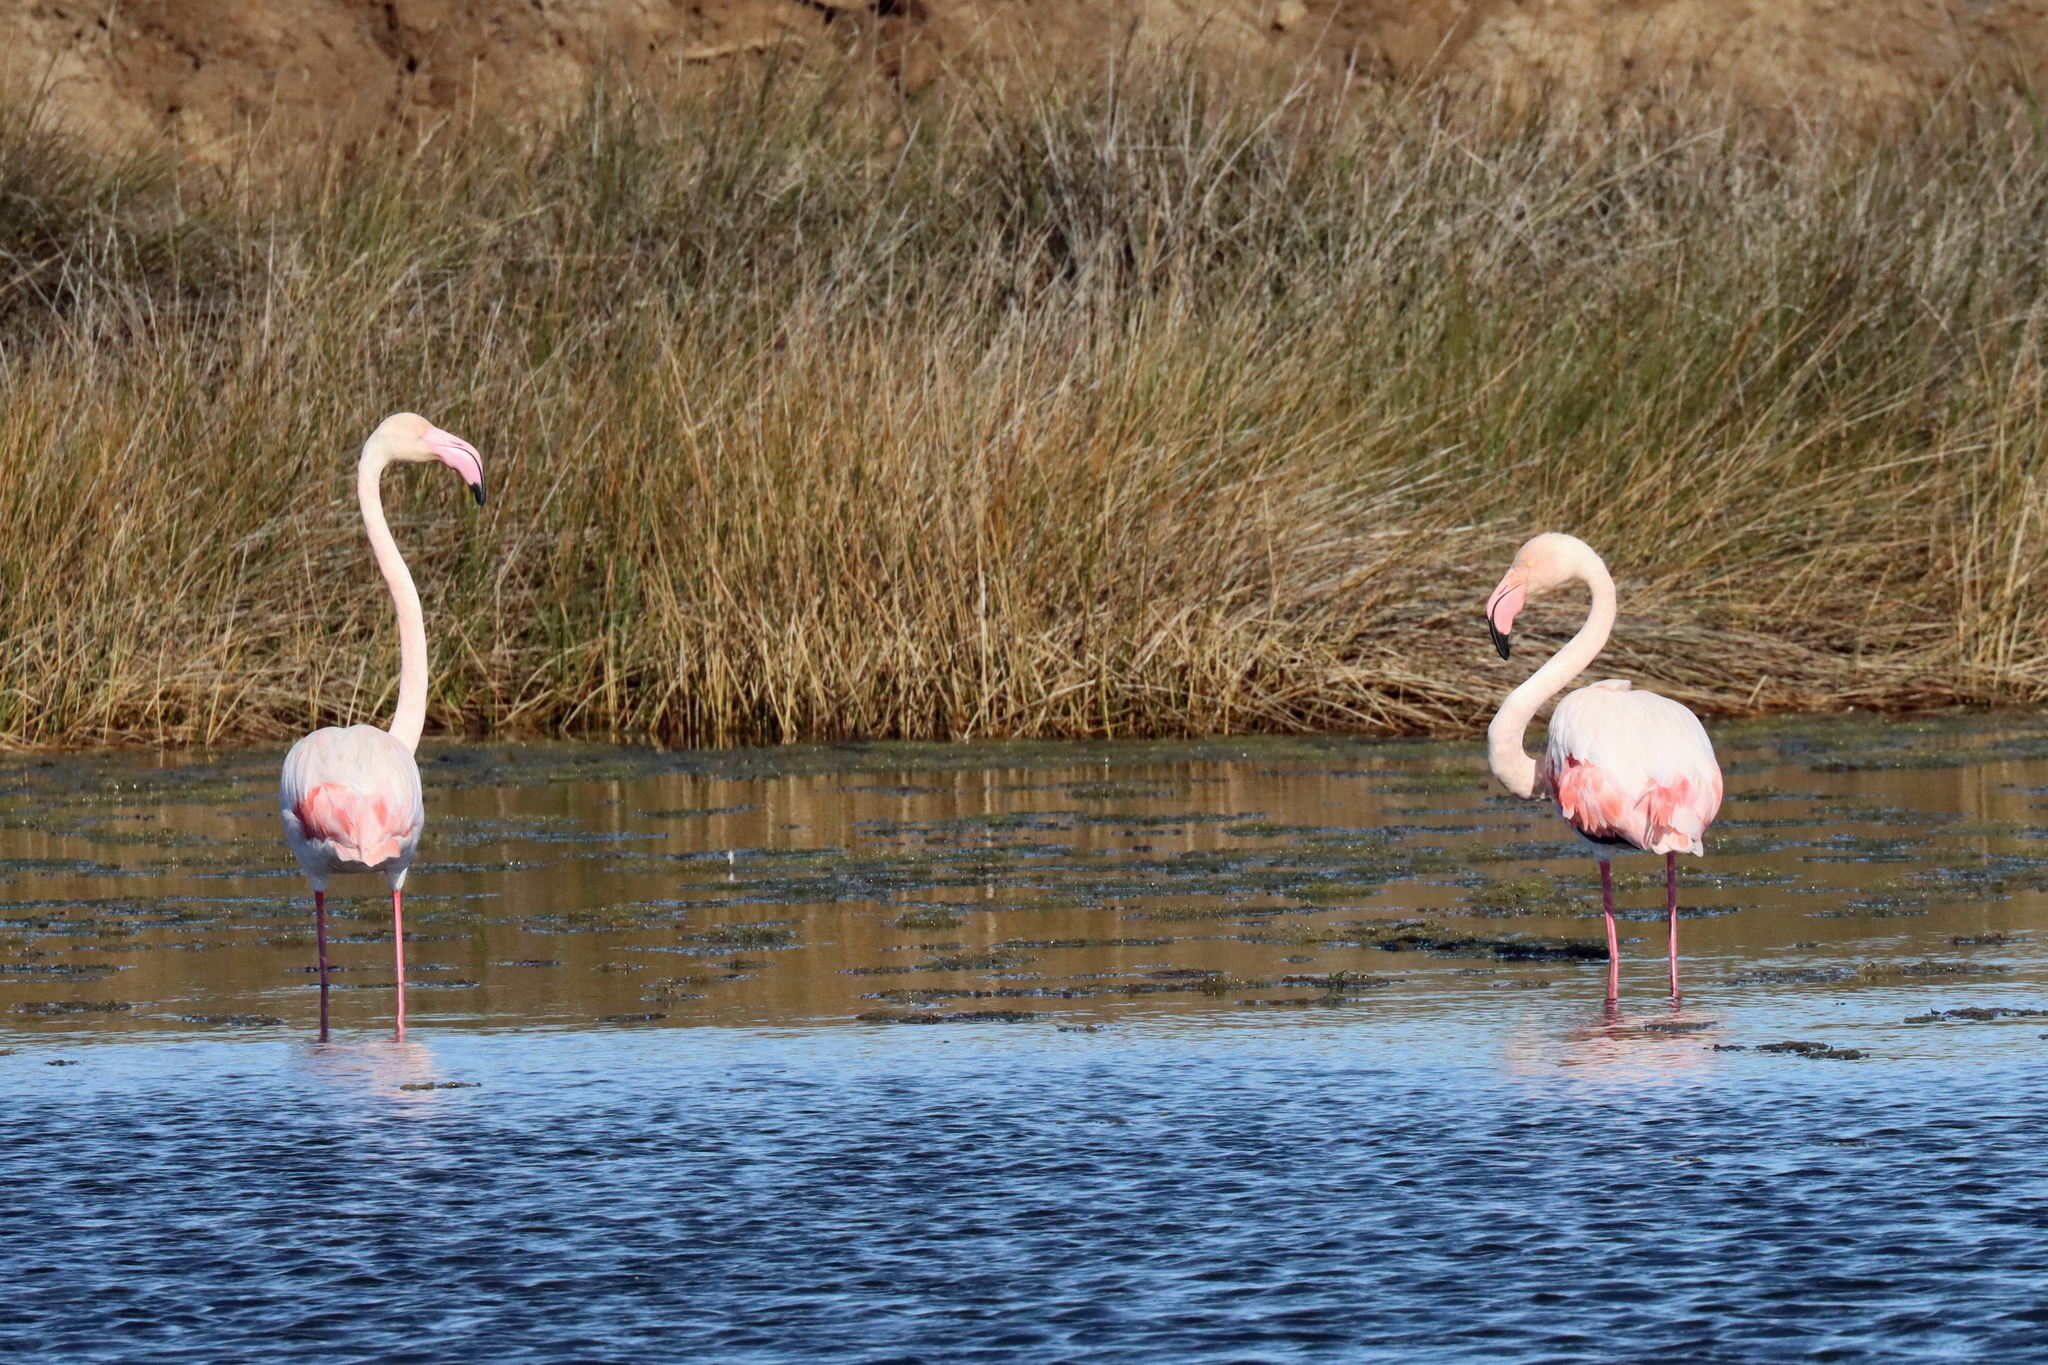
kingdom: Animalia
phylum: Chordata
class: Aves
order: Phoenicopteriformes
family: Phoenicopteridae
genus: Phoenicopterus
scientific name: Phoenicopterus roseus
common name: Greater flamingo
